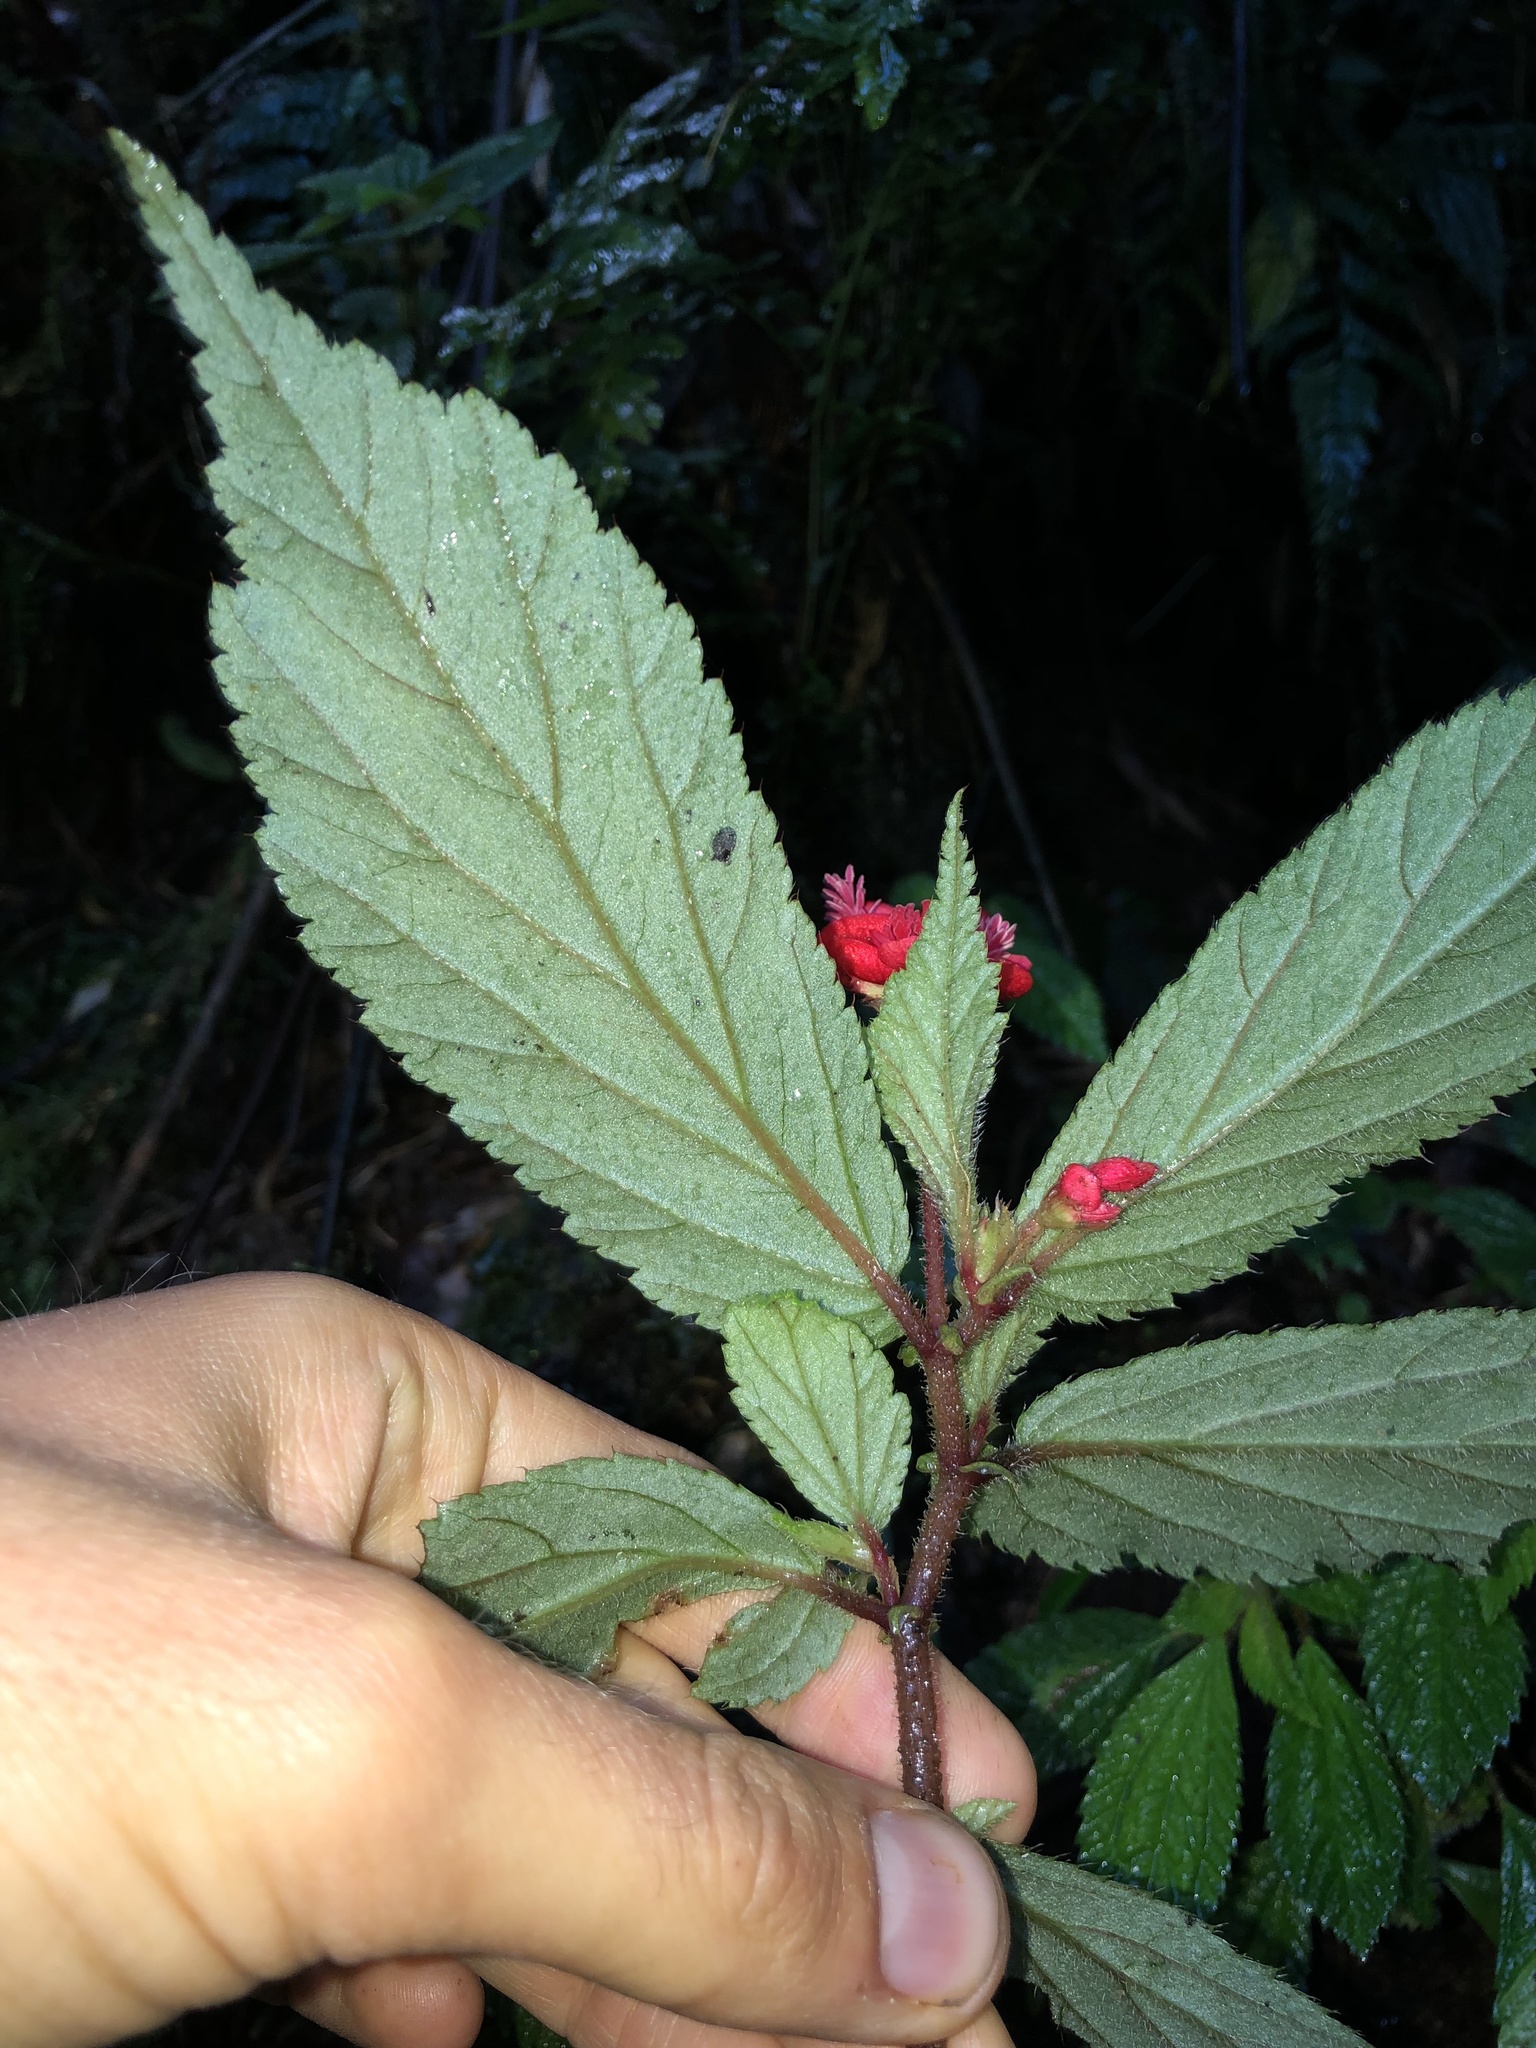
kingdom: Plantae
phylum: Tracheophyta
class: Magnoliopsida
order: Cucurbitales
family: Begoniaceae
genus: Begonia
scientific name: Begonia urticae
